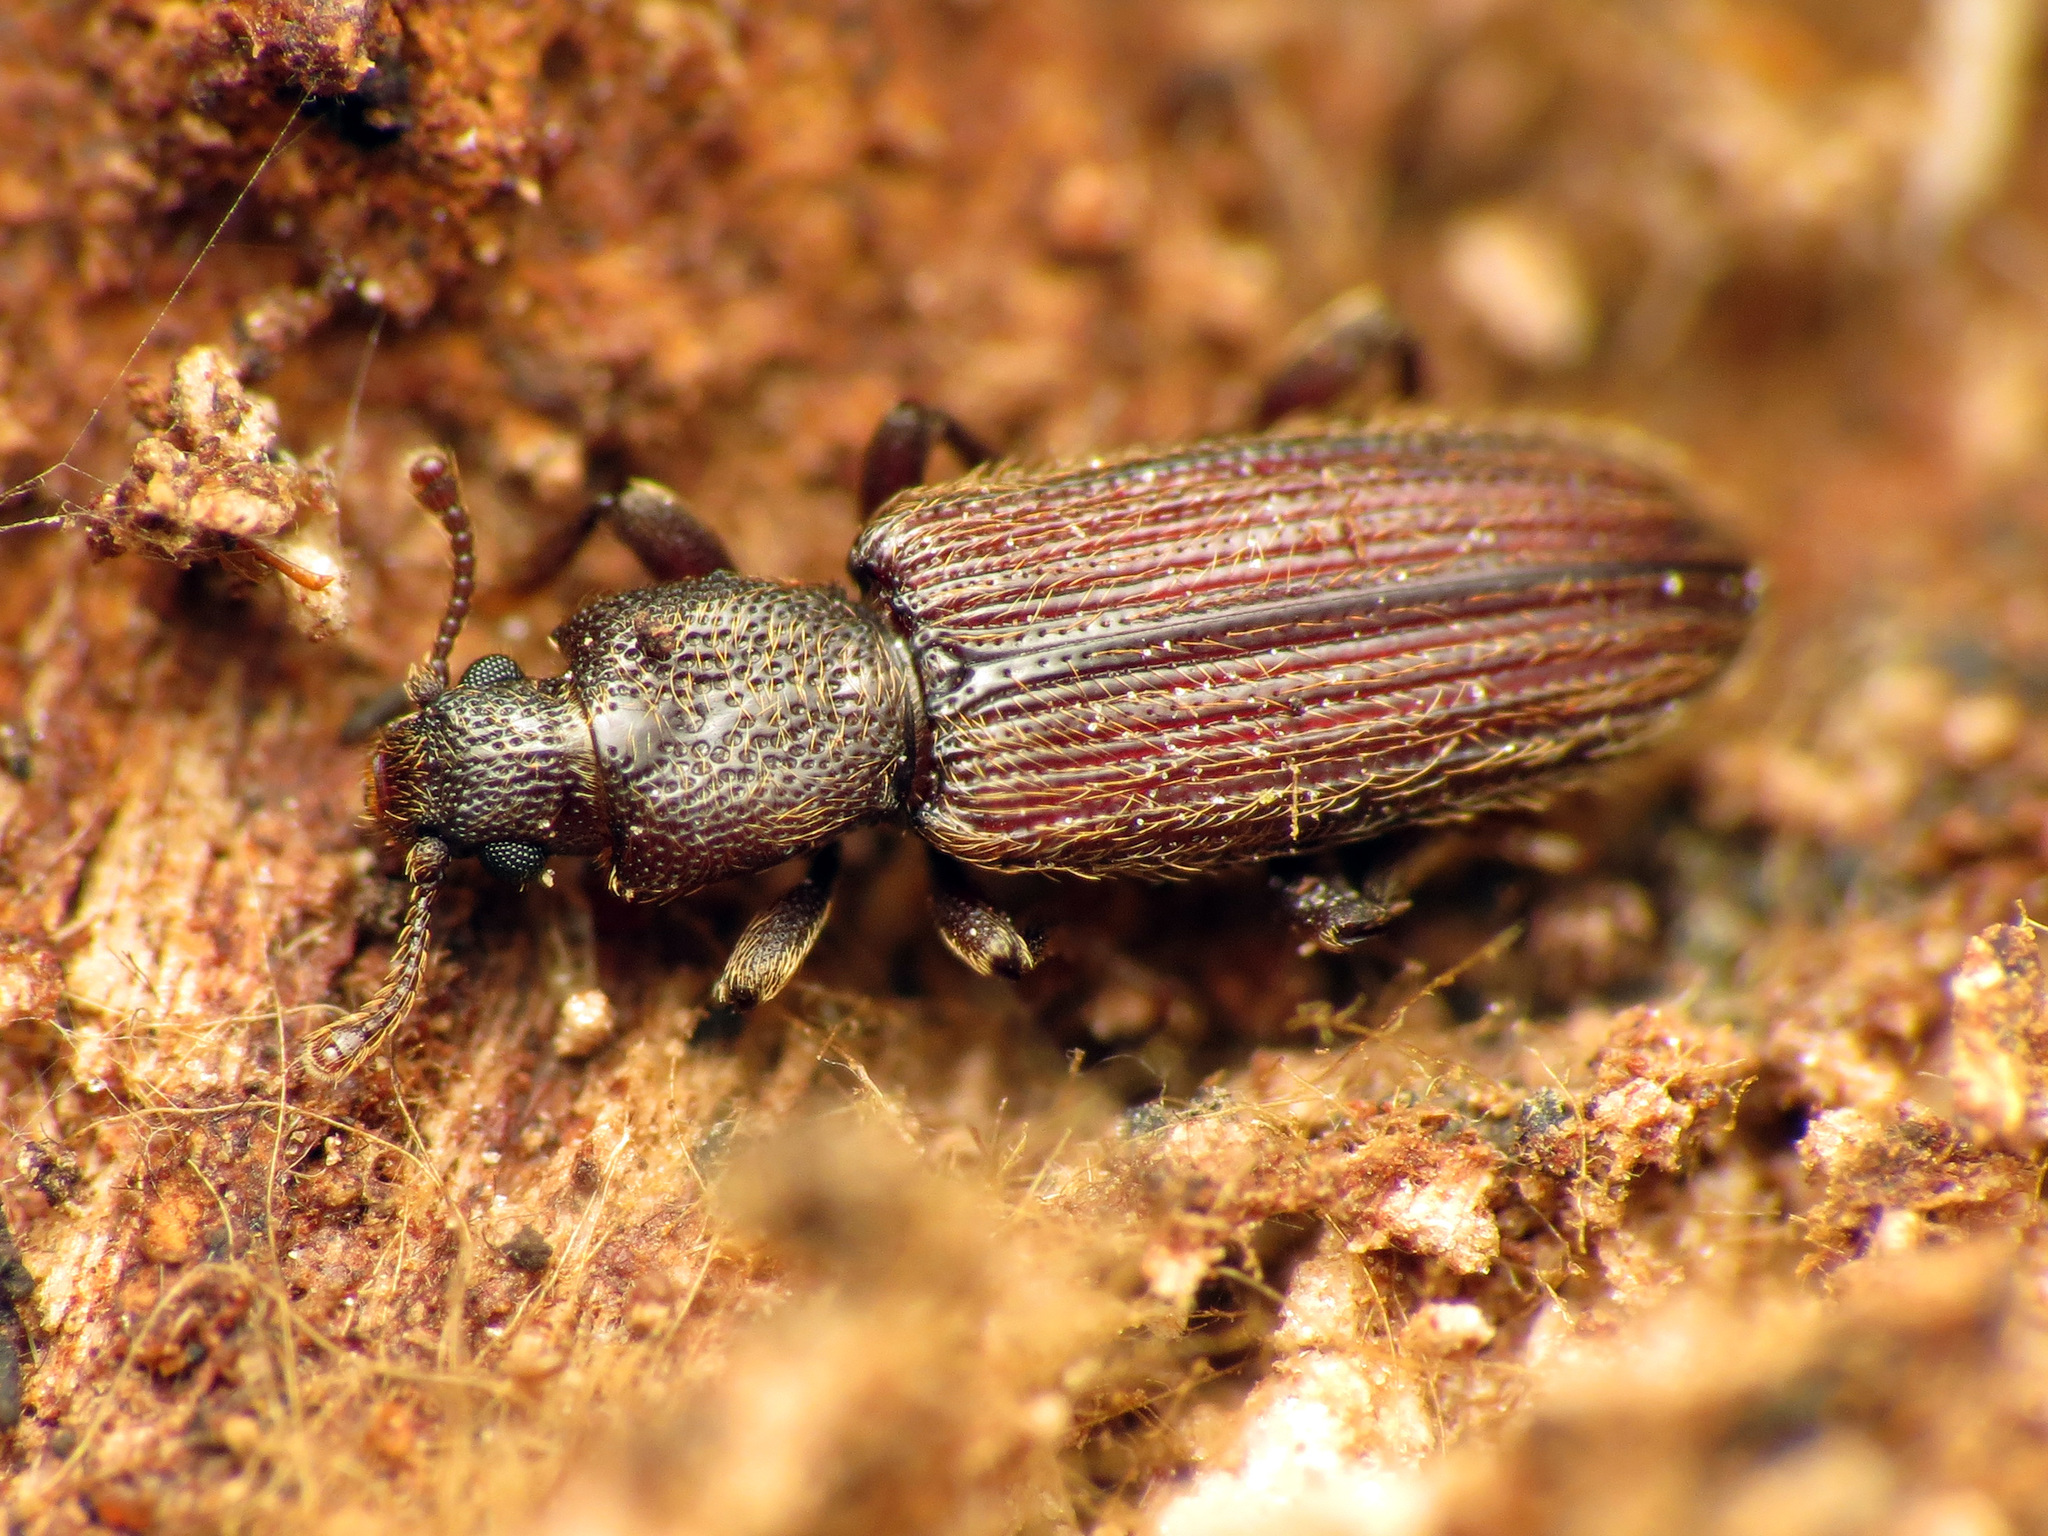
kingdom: Animalia
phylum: Arthropoda
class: Insecta
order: Coleoptera
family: Bothrideridae
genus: Bothrideres
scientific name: Bothrideres cryptus
